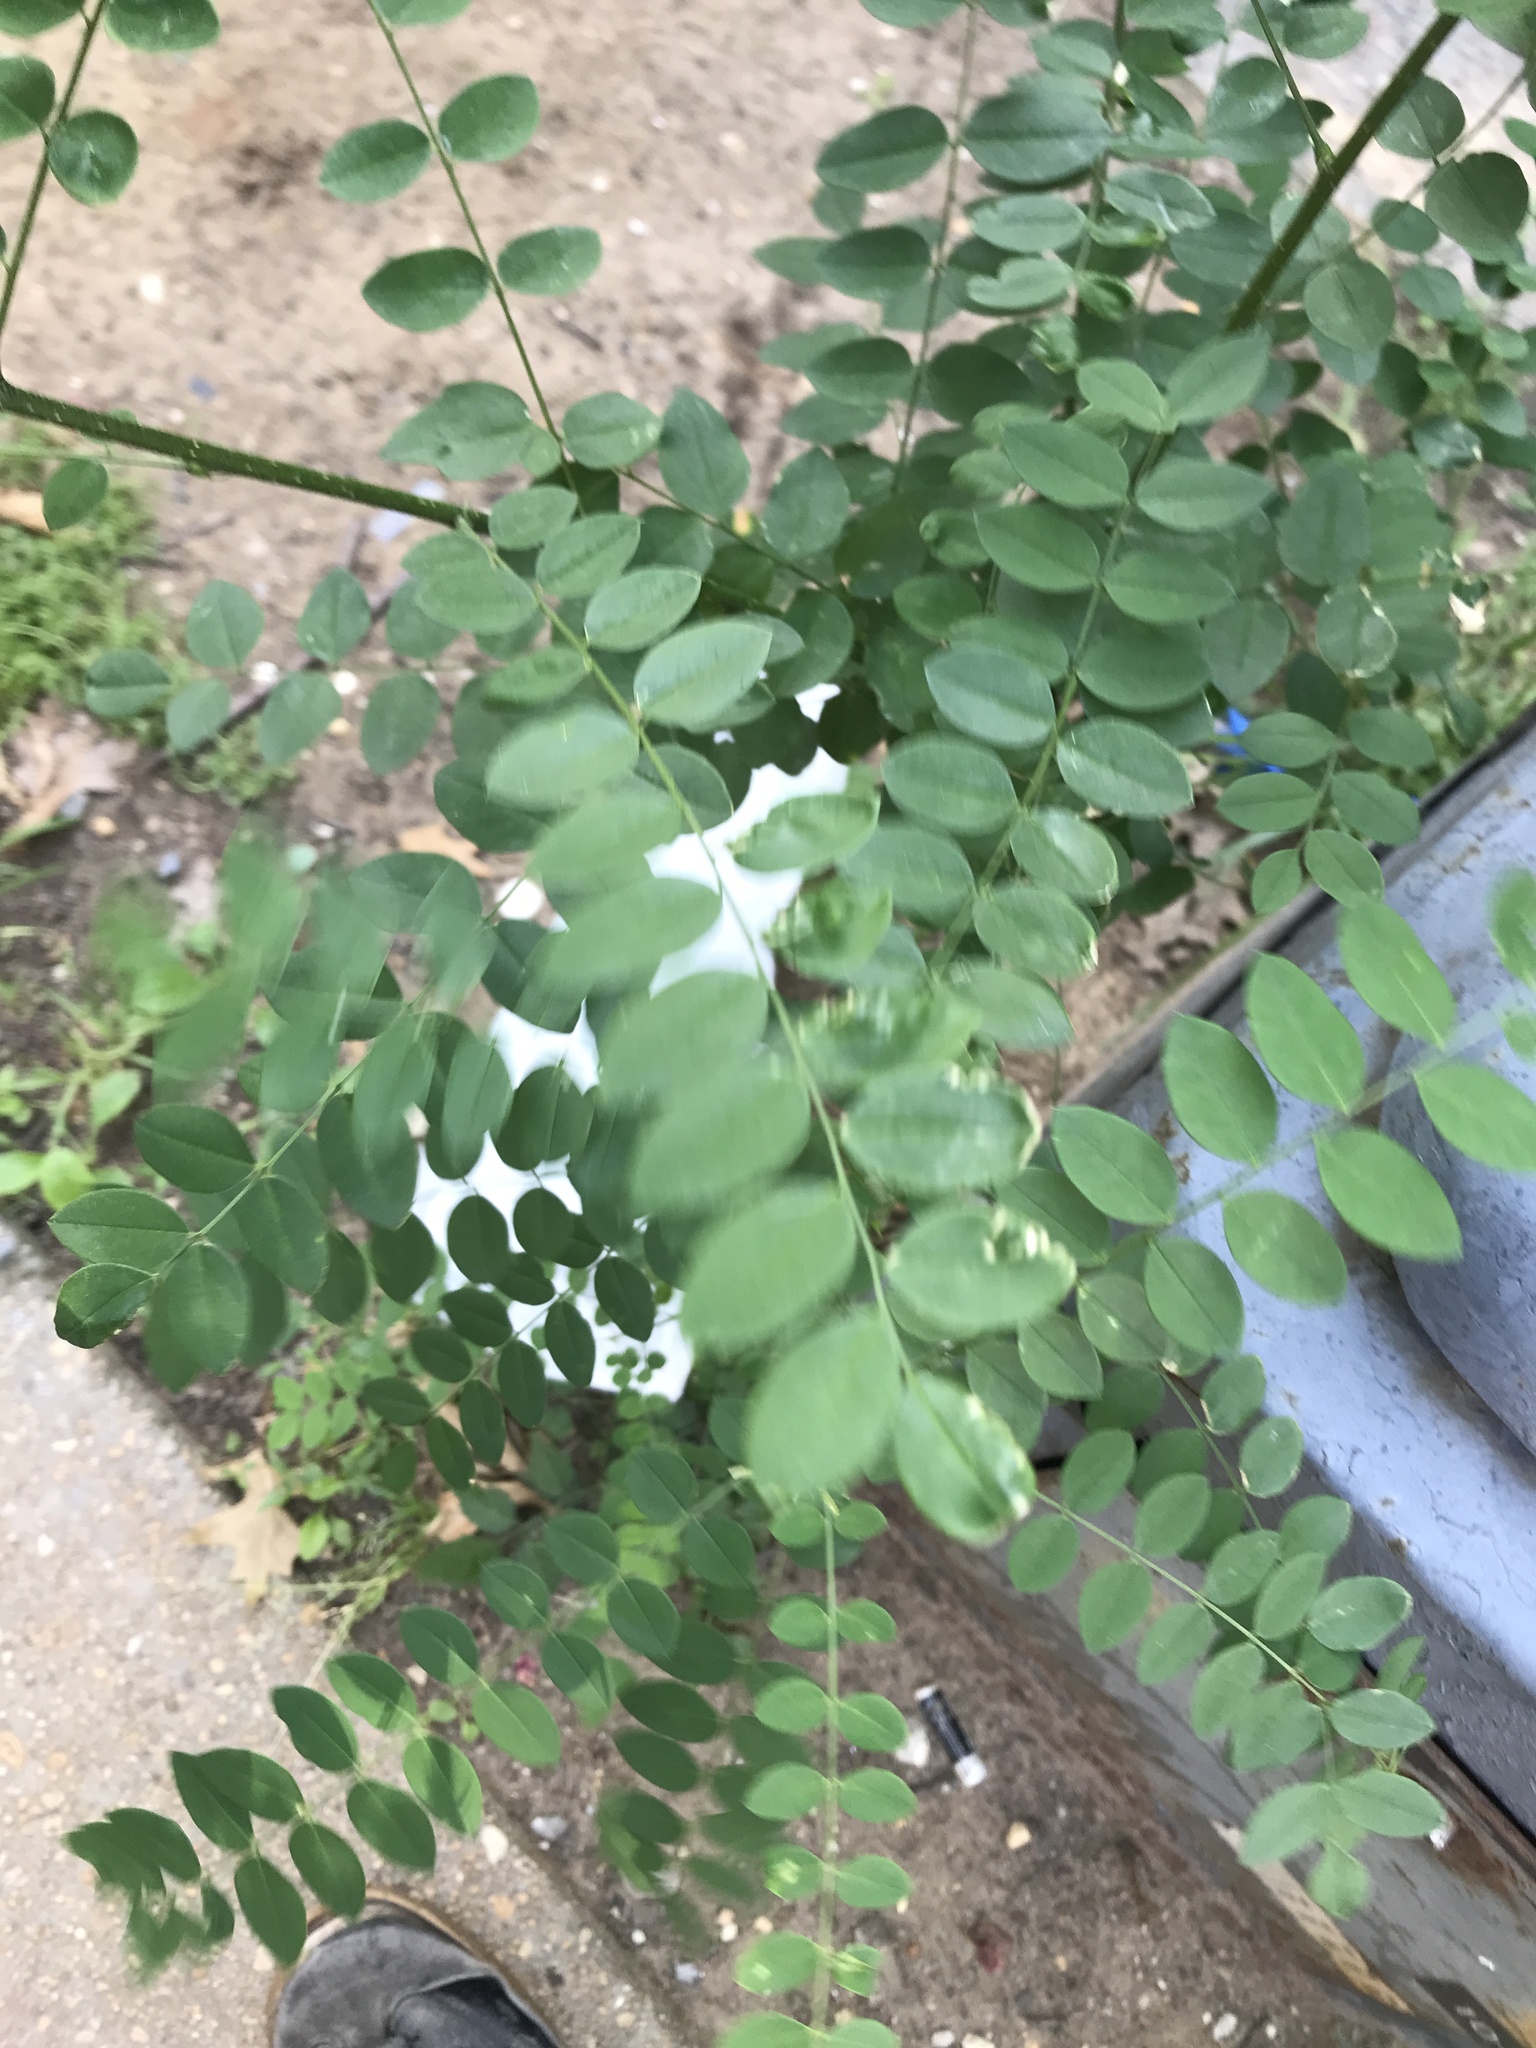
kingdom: Plantae
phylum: Tracheophyta
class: Magnoliopsida
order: Fabales
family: Fabaceae
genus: Robinia
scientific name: Robinia pseudoacacia
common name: Black locust
